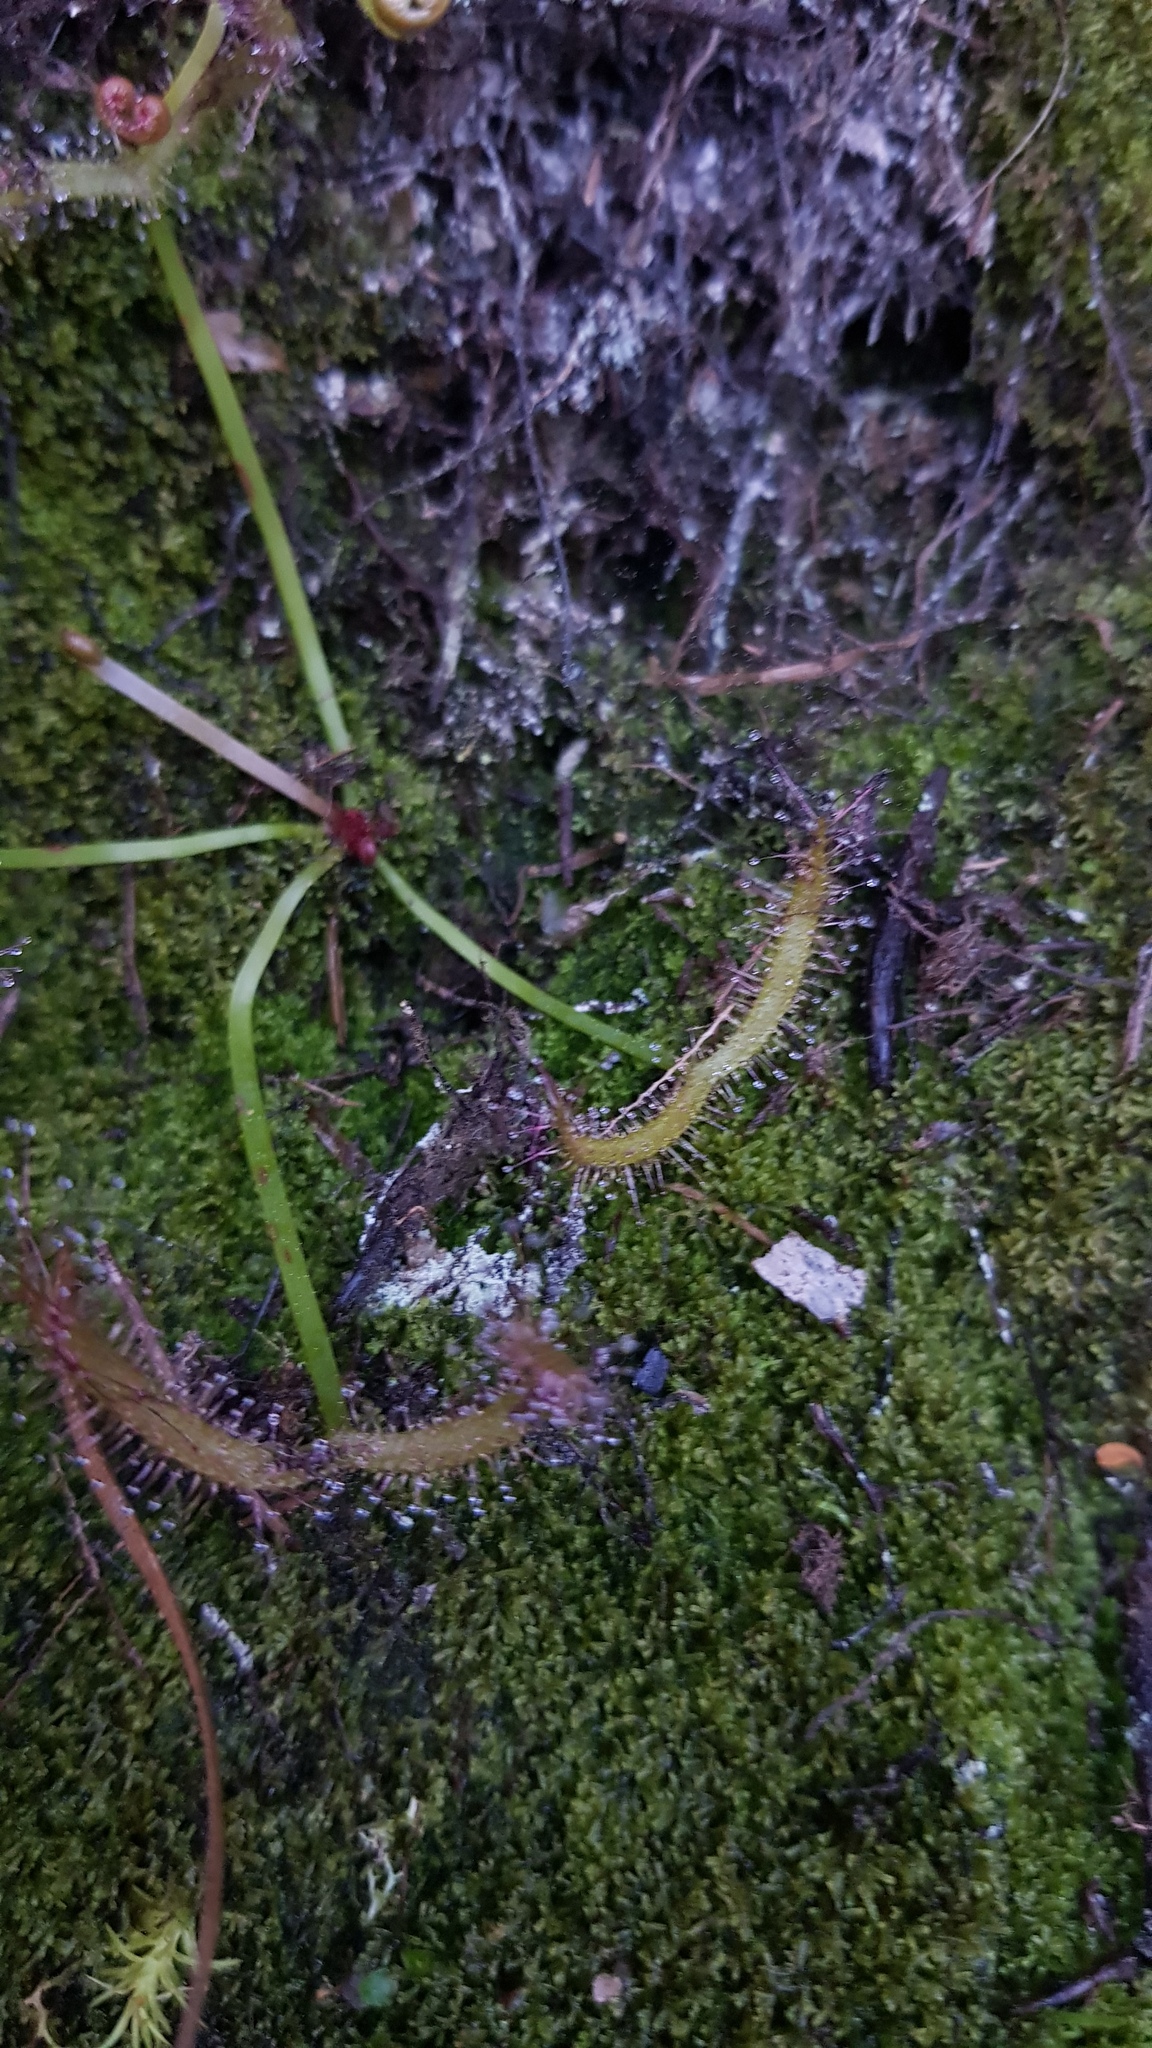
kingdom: Plantae
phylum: Tracheophyta
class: Magnoliopsida
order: Caryophyllales
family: Droseraceae
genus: Drosera
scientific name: Drosera binata
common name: Forked sundew
